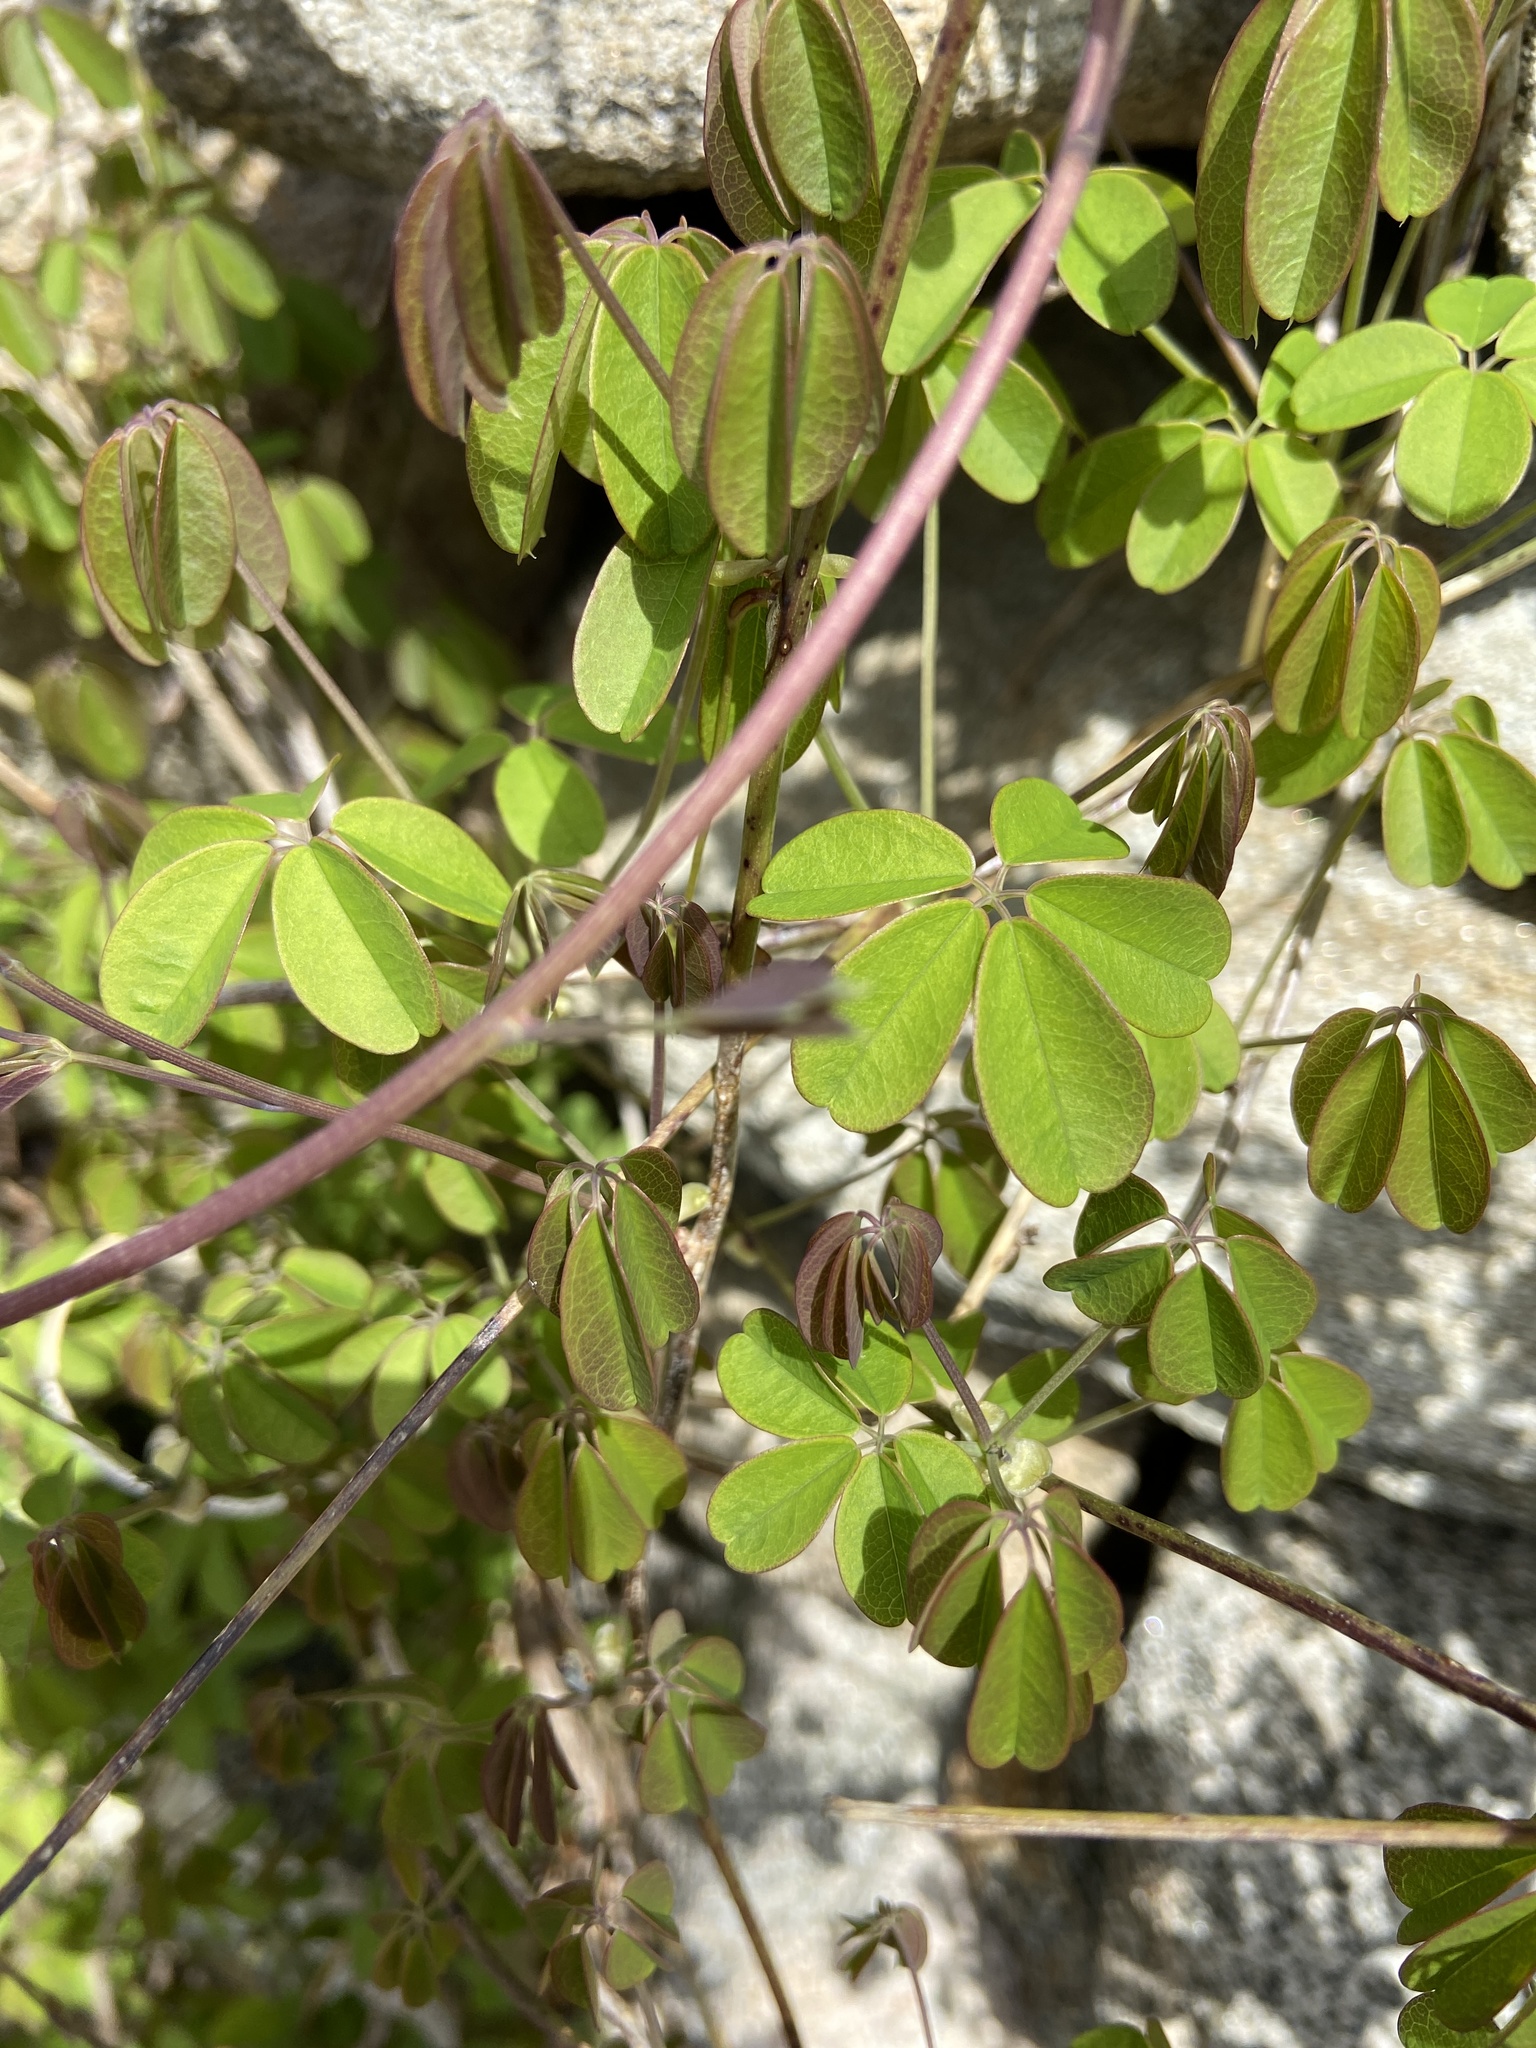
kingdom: Plantae
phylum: Tracheophyta
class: Magnoliopsida
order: Ranunculales
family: Lardizabalaceae
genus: Akebia
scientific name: Akebia quinata
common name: Five-leaf akebia
